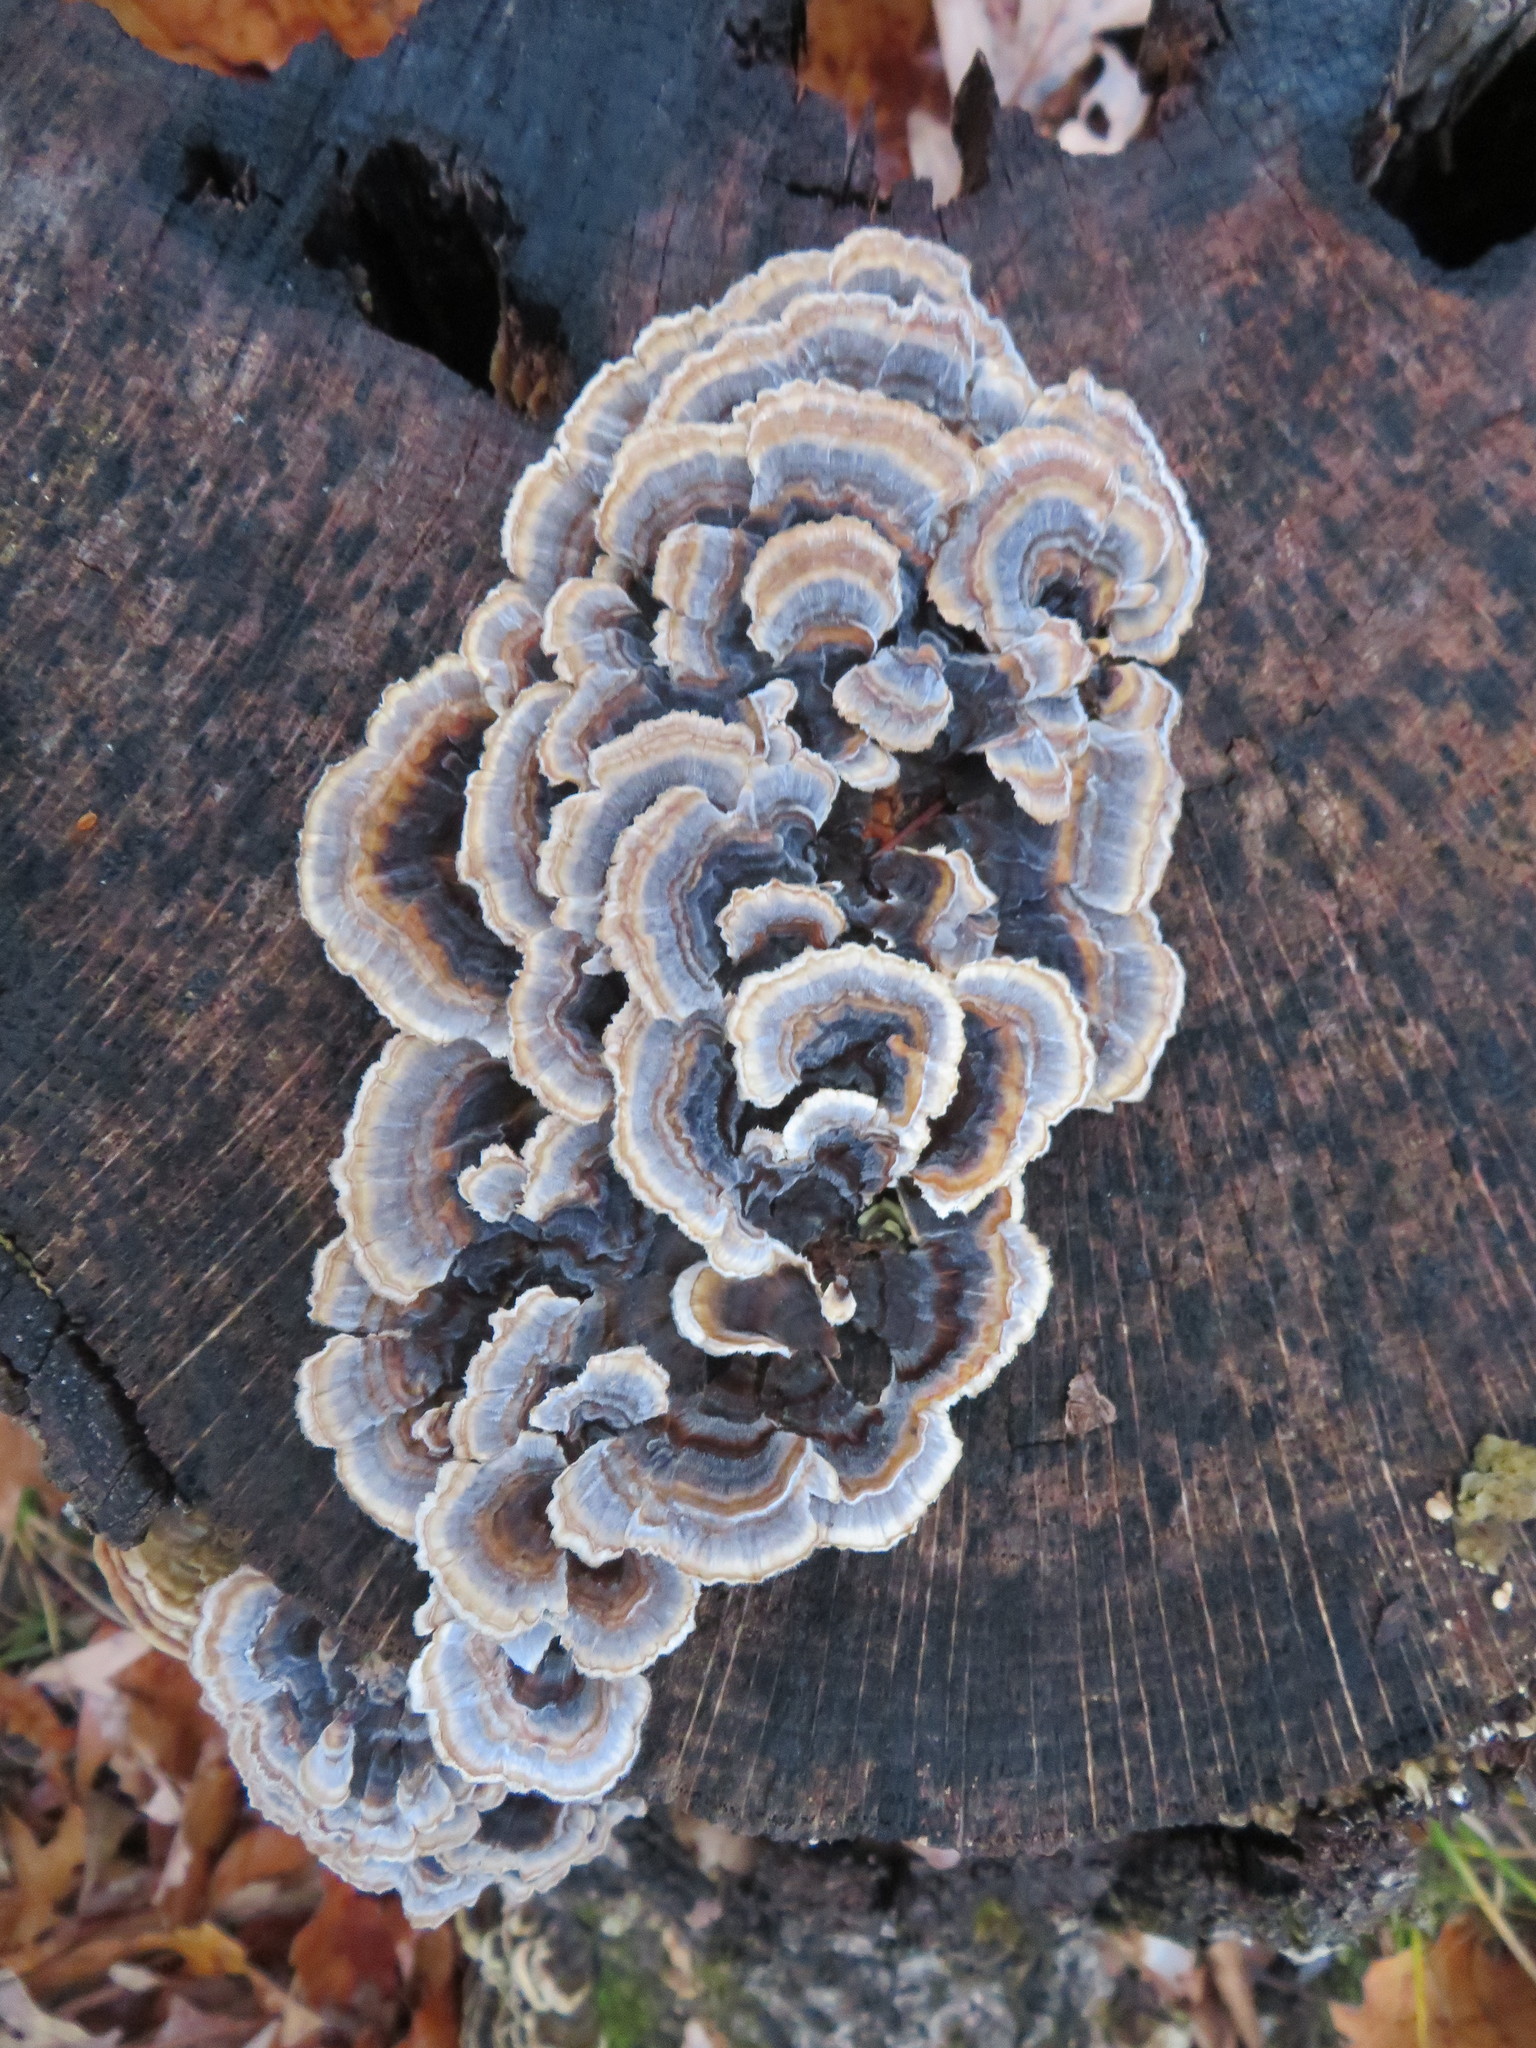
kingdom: Fungi
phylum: Basidiomycota
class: Agaricomycetes
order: Polyporales
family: Polyporaceae
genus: Trametes
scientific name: Trametes versicolor
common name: Turkeytail
